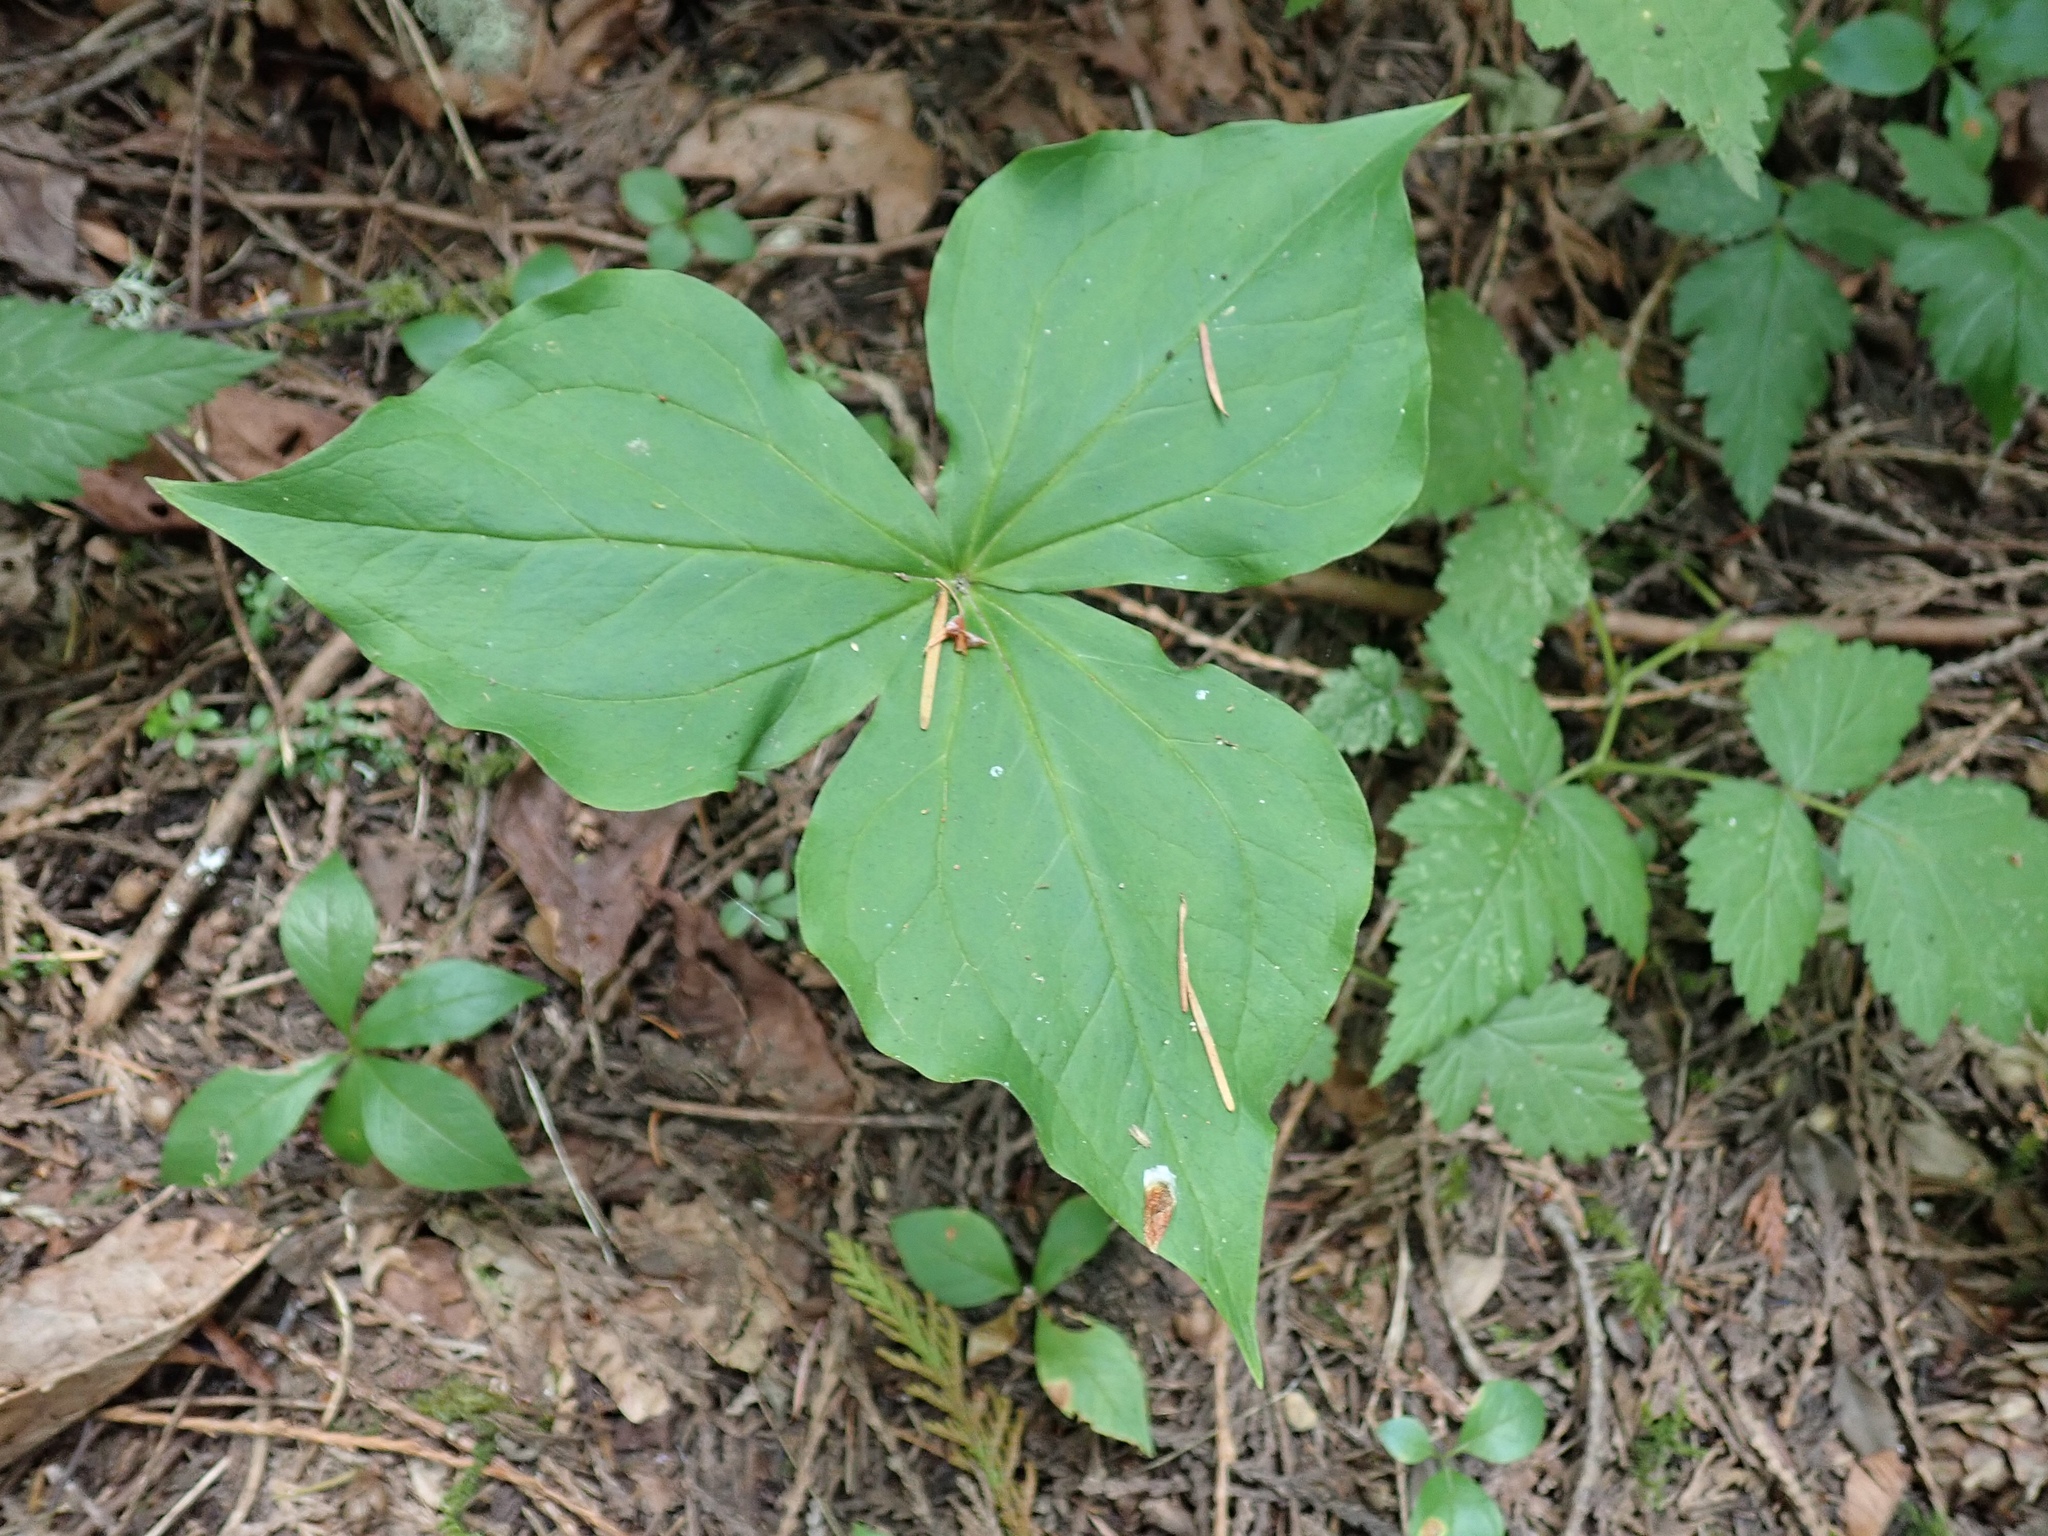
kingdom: Plantae
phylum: Tracheophyta
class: Liliopsida
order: Liliales
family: Melanthiaceae
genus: Trillium
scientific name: Trillium ovatum
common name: Pacific trillium
